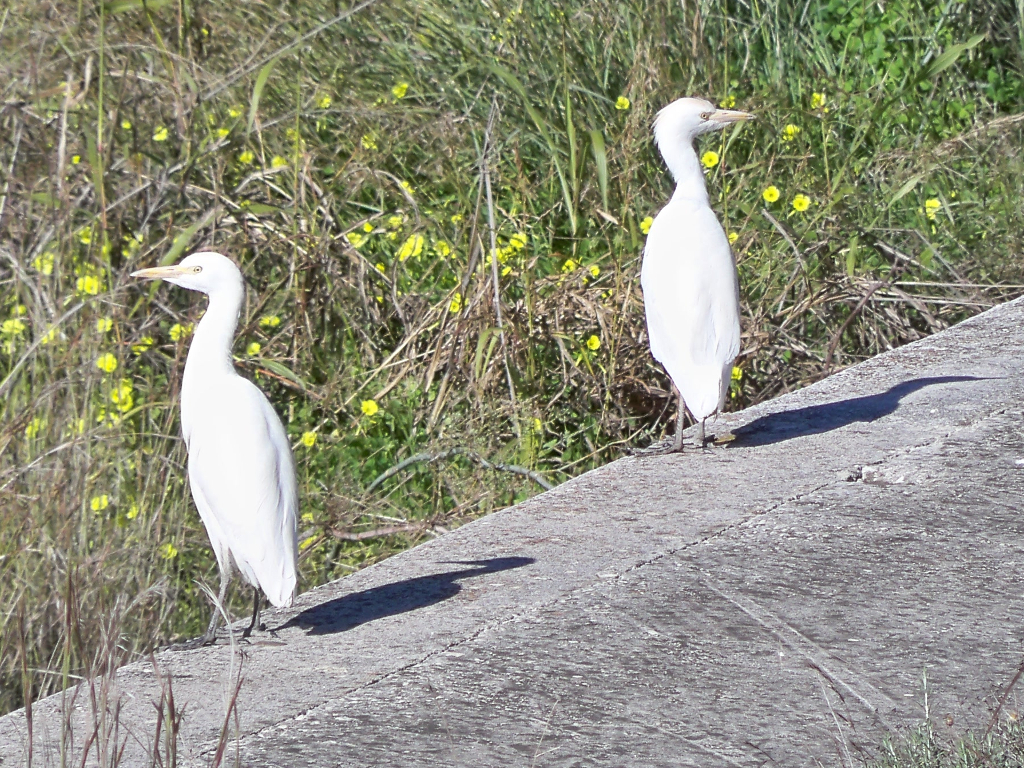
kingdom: Animalia
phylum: Chordata
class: Aves
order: Pelecaniformes
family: Ardeidae
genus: Bubulcus
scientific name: Bubulcus ibis
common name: Cattle egret
